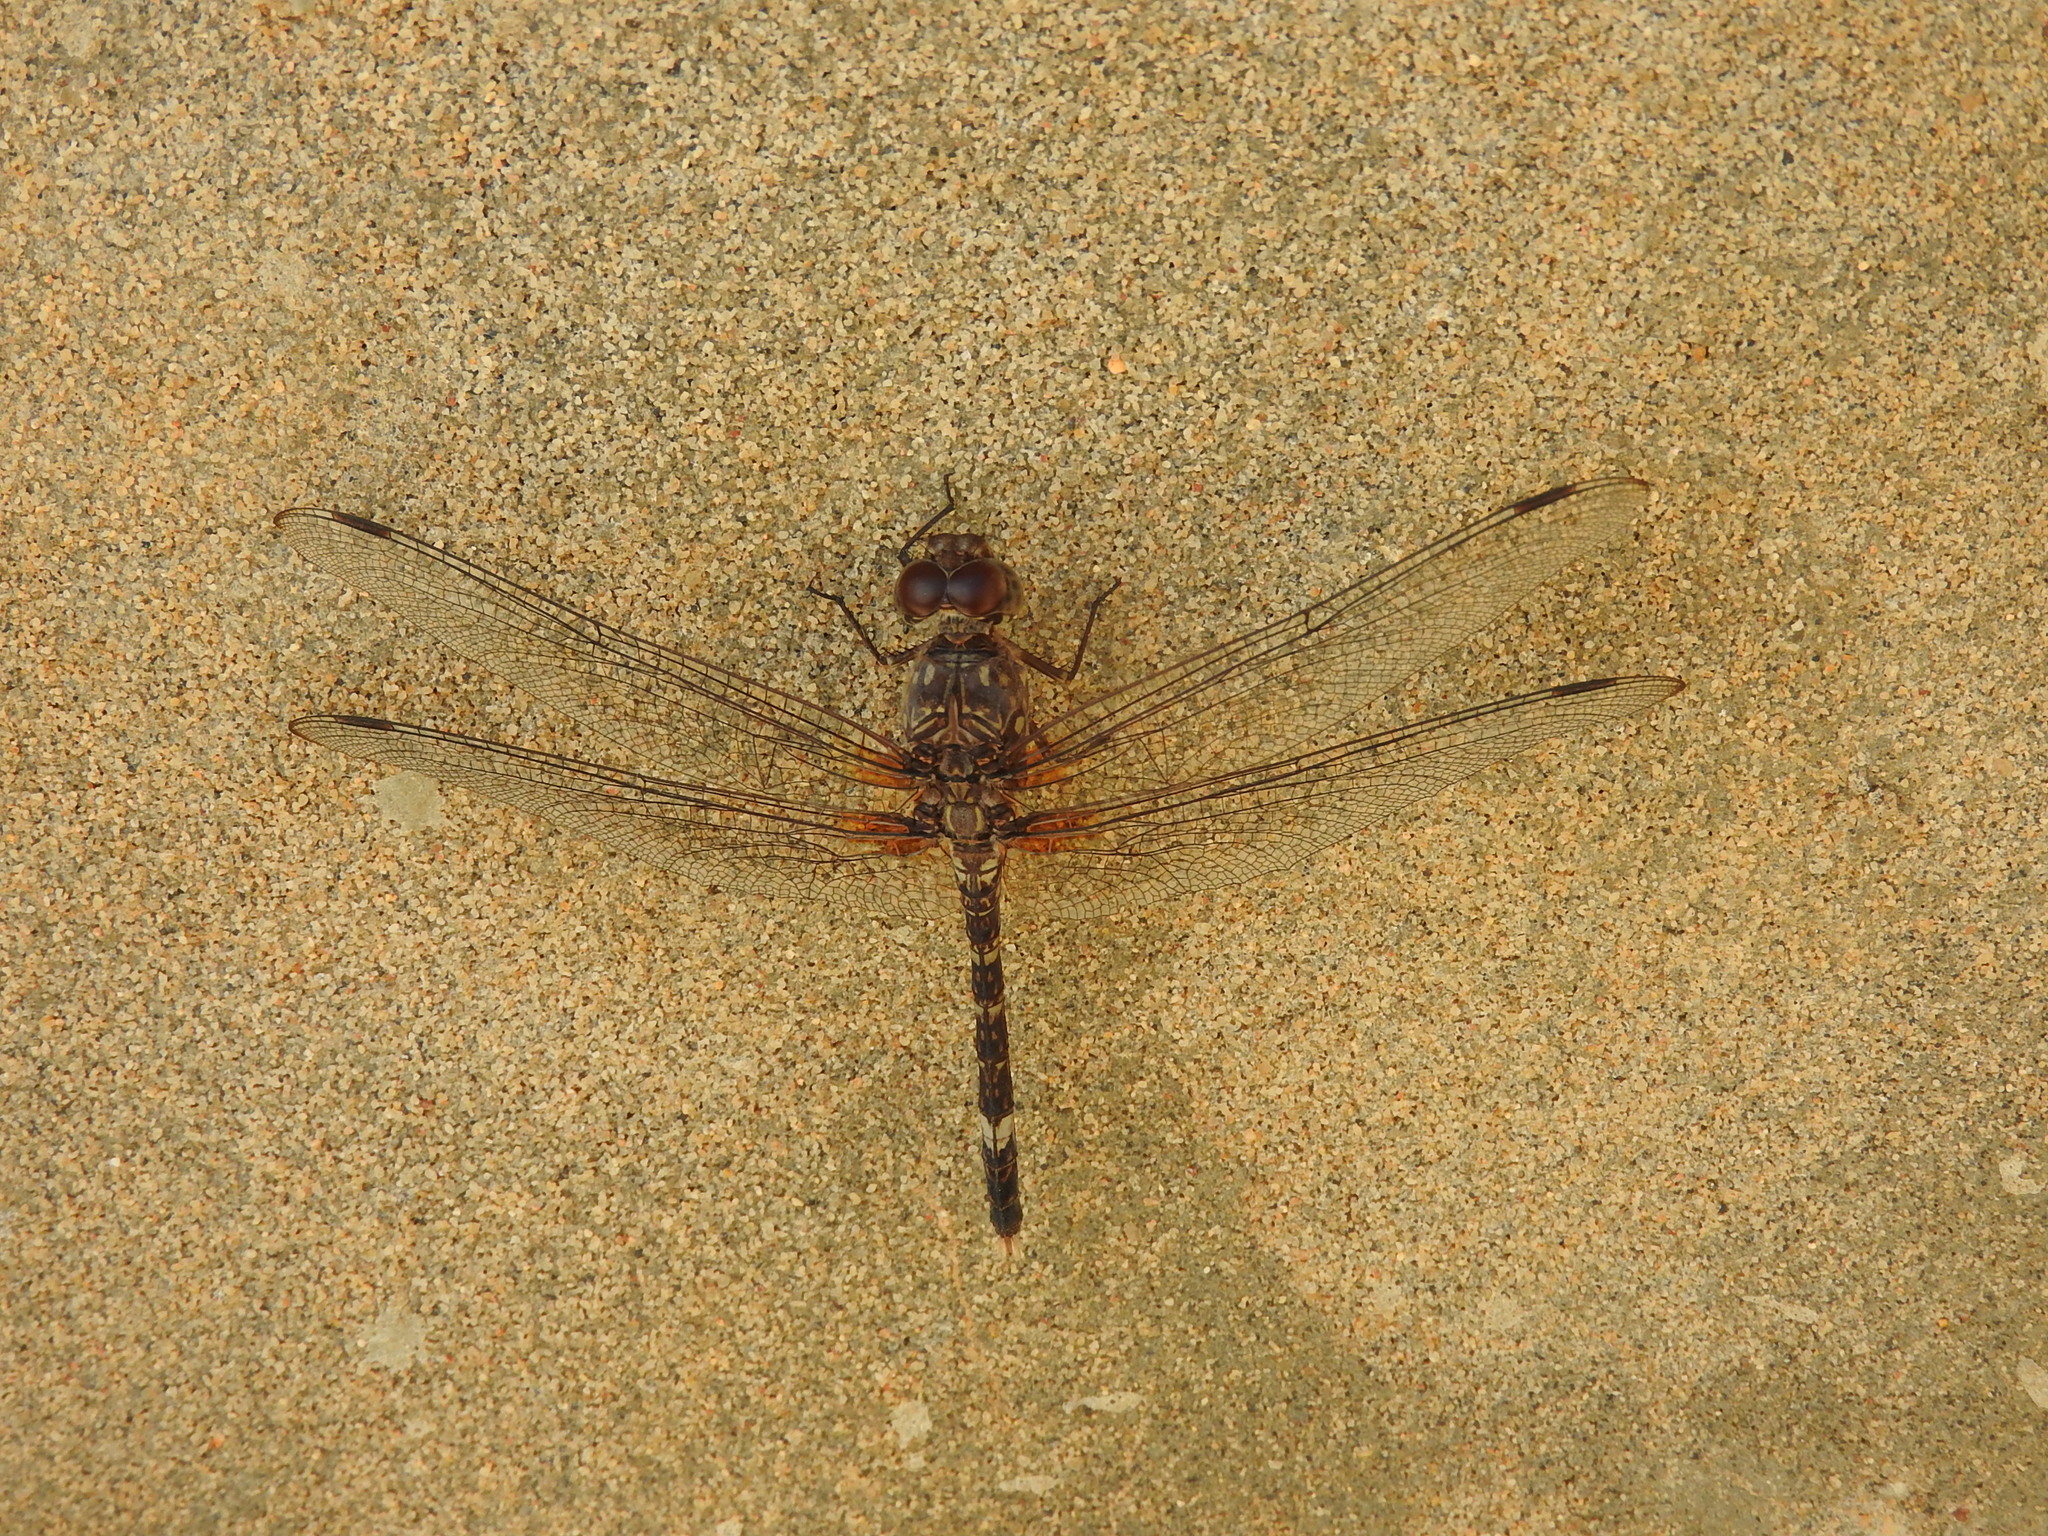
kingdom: Animalia
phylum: Arthropoda
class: Insecta
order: Odonata
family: Libellulidae
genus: Bradinopyga
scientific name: Bradinopyga cornuta
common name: Flecked wall-skimmer
